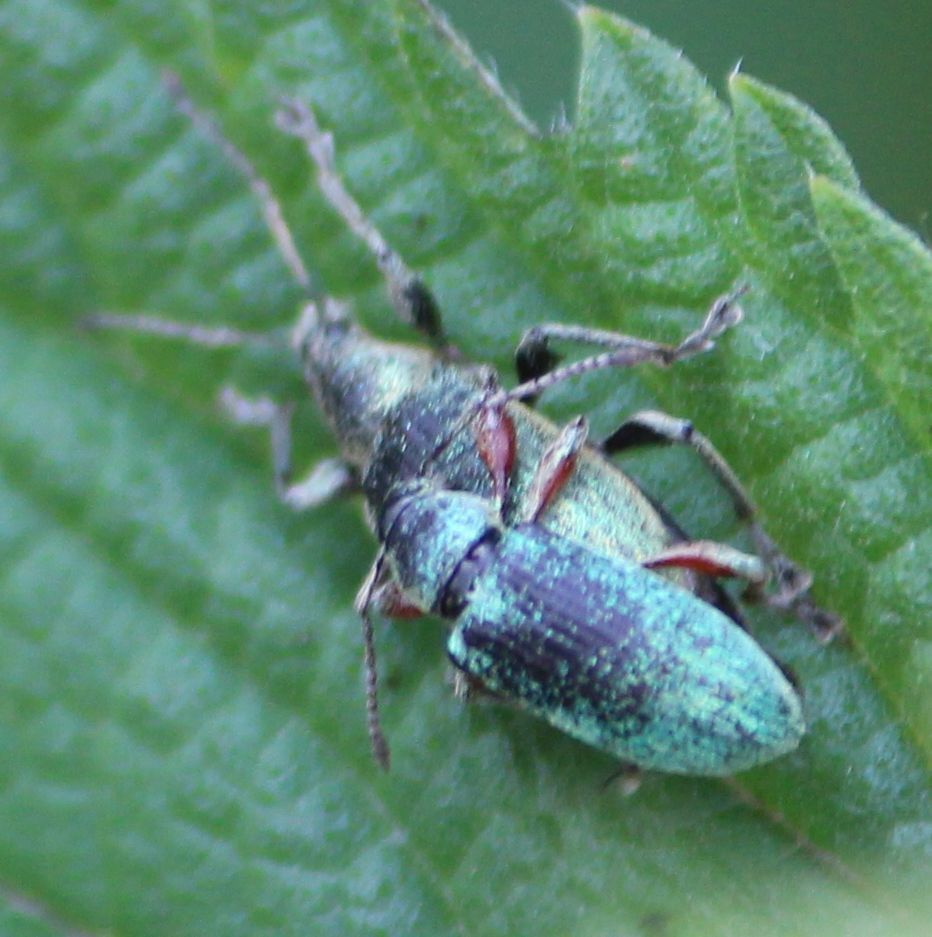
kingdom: Animalia
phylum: Arthropoda
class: Insecta
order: Coleoptera
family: Curculionidae
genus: Phyllobius
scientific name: Phyllobius pomaceus
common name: Green nettle weevil
